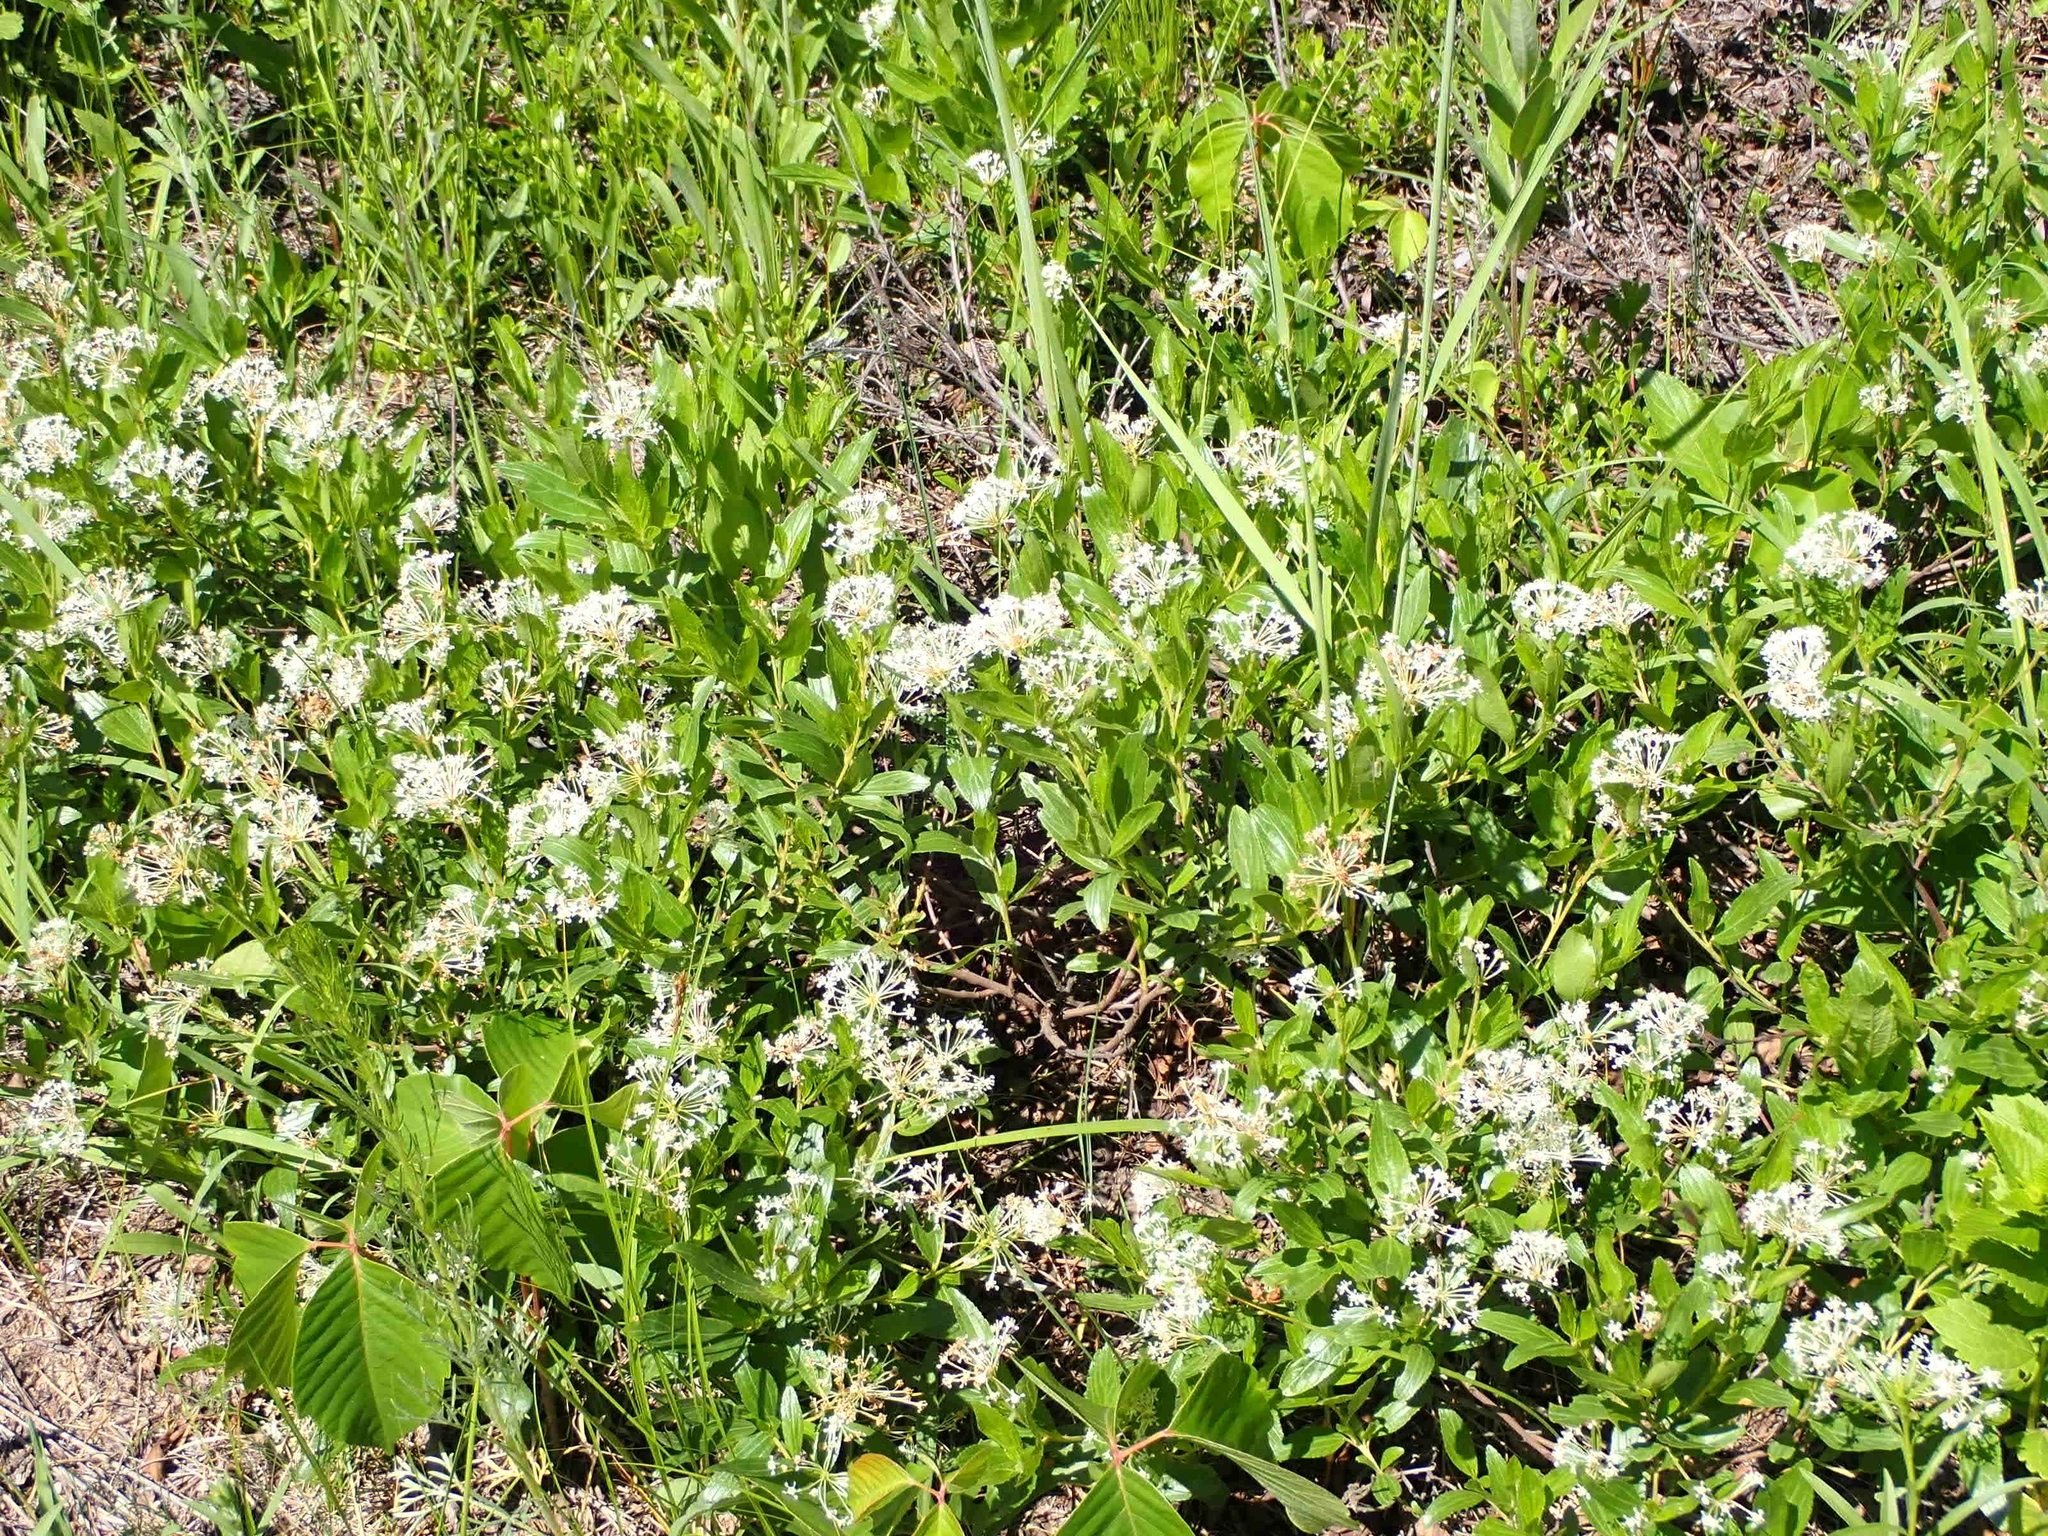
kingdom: Plantae
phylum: Tracheophyta
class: Magnoliopsida
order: Rosales
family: Rhamnaceae
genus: Ceanothus
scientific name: Ceanothus herbaceus
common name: Inland ceanothus
